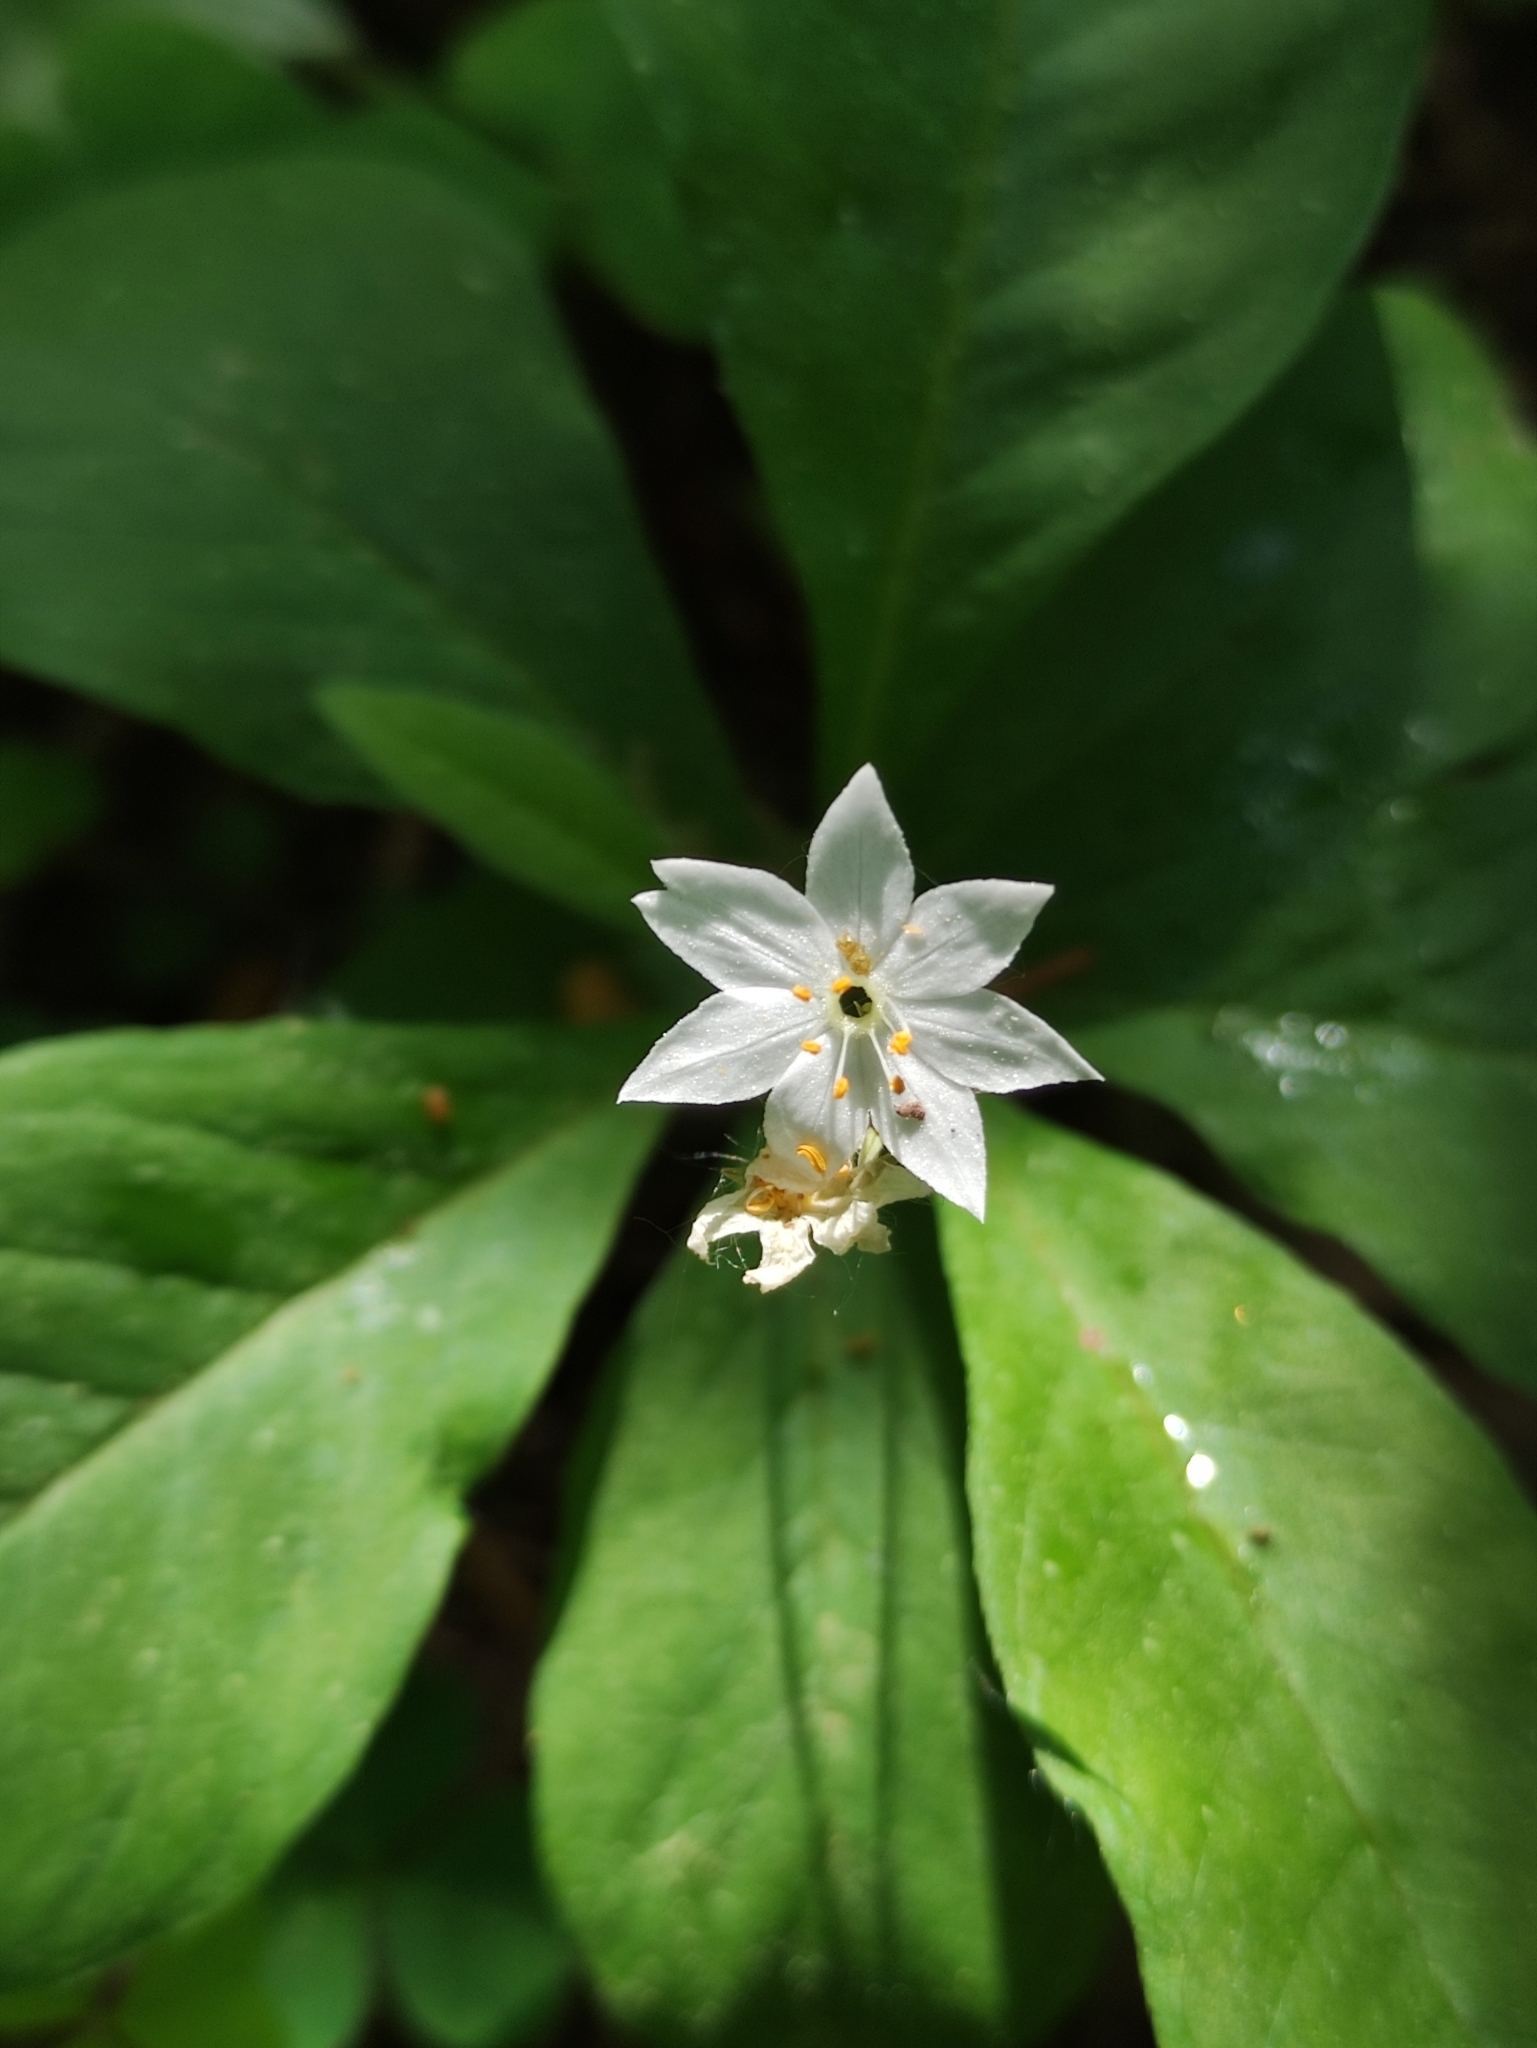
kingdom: Plantae
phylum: Tracheophyta
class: Magnoliopsida
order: Ericales
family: Primulaceae
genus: Lysimachia
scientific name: Lysimachia europaea
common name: Arctic starflower
